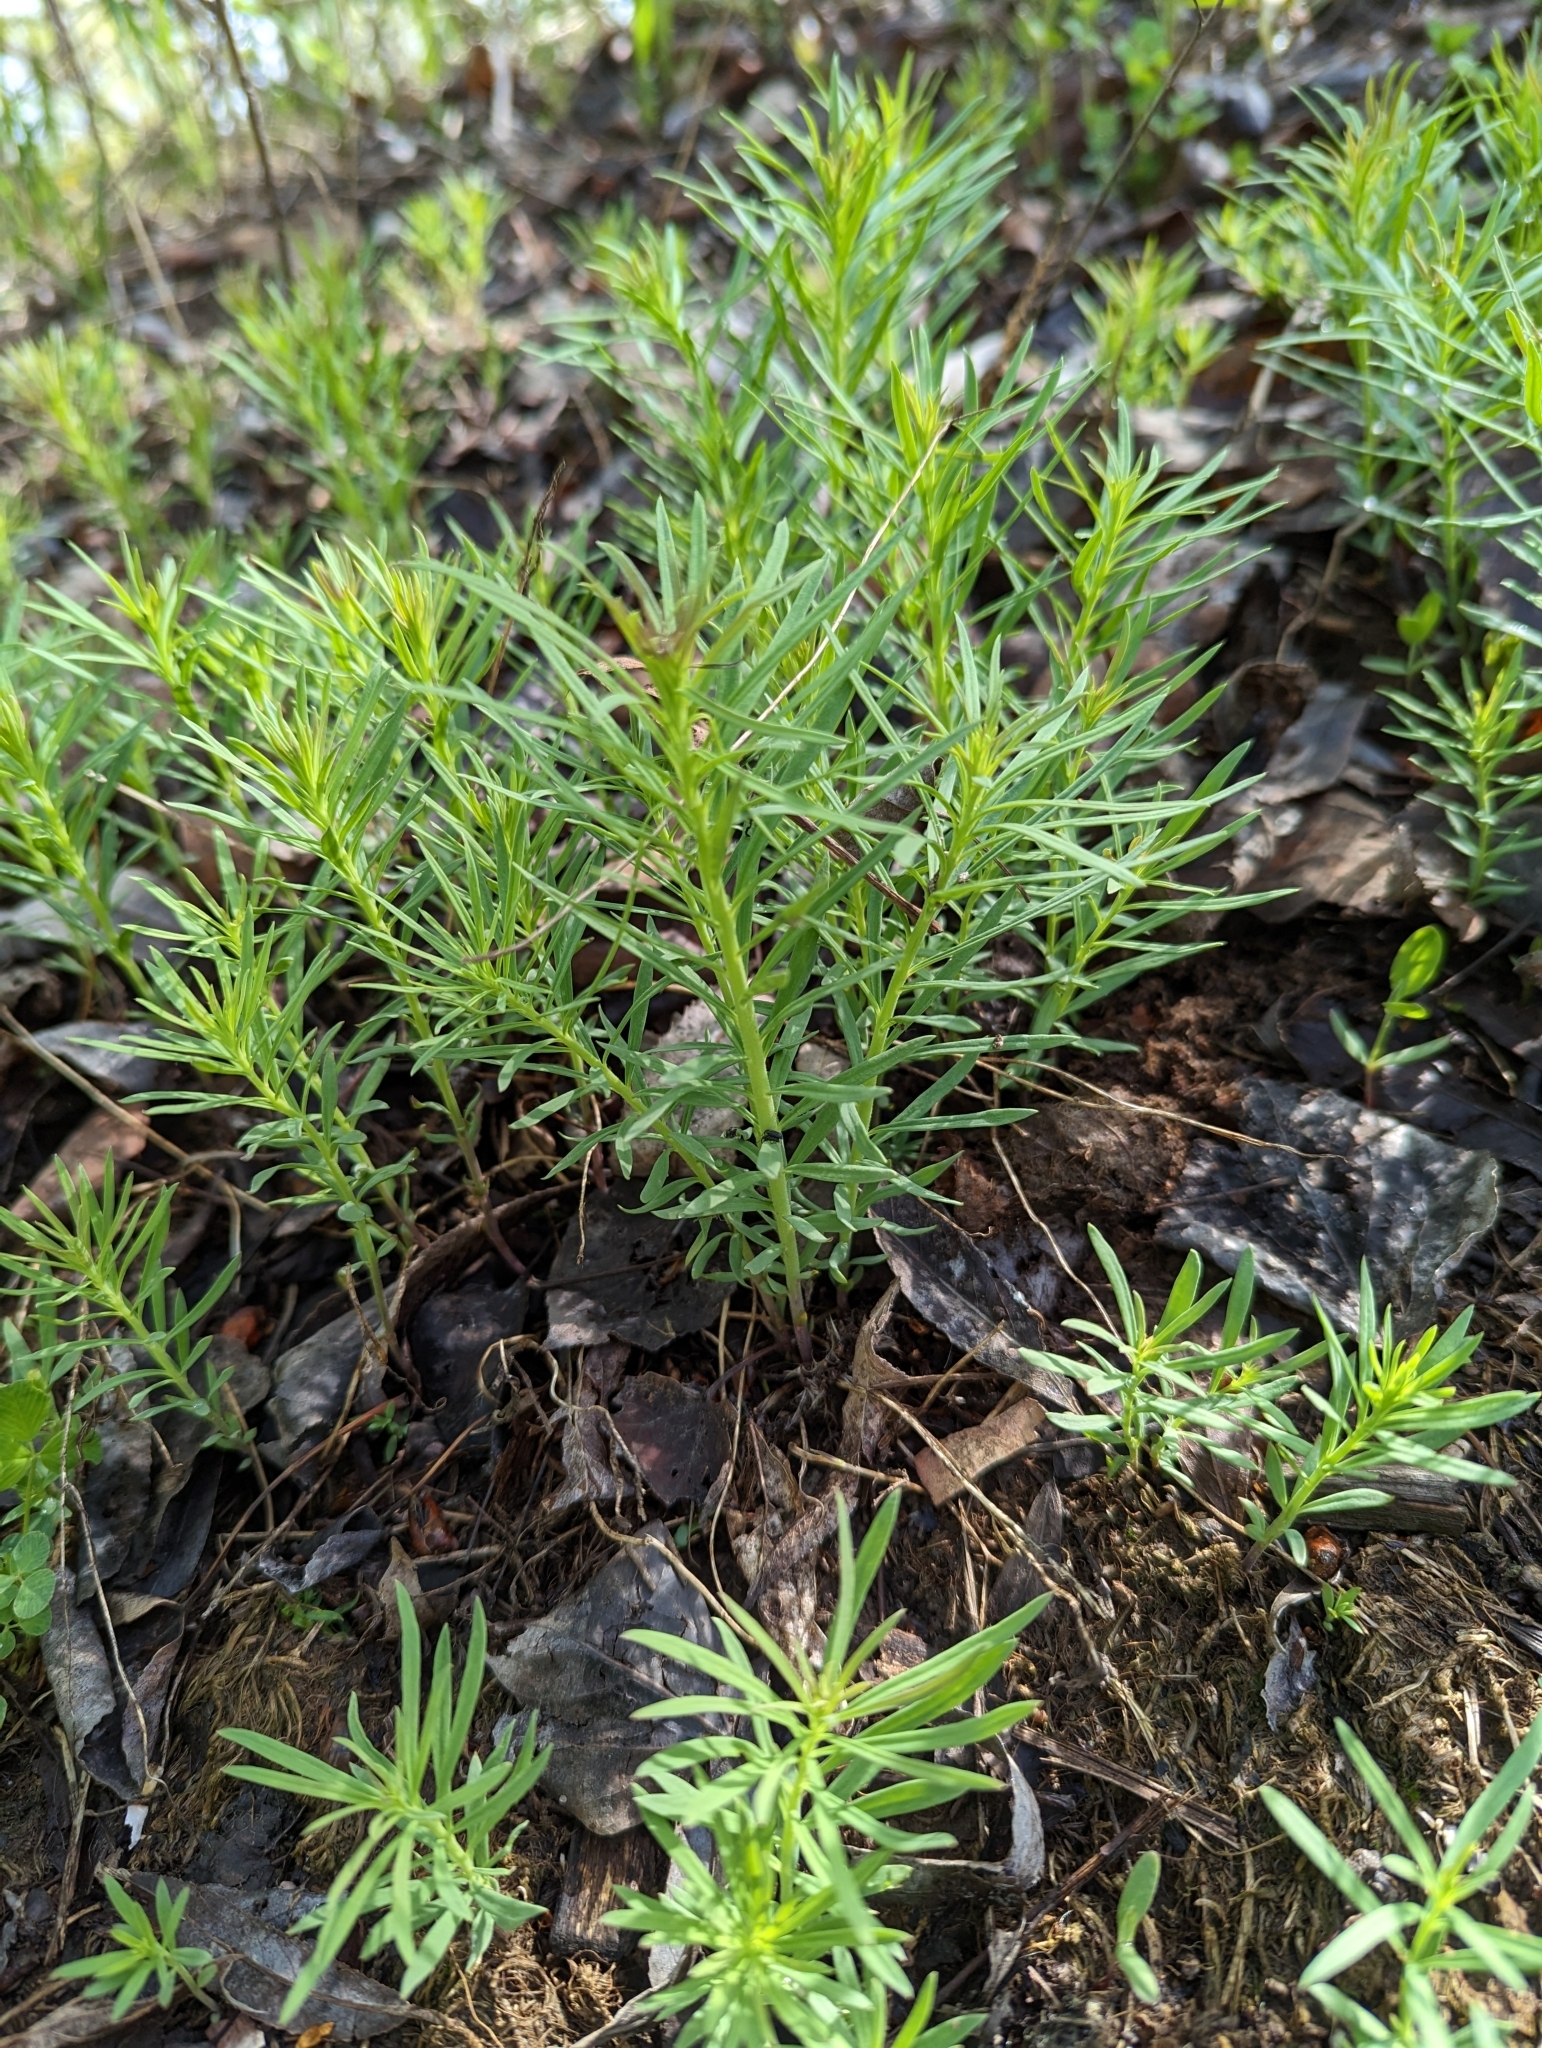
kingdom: Plantae
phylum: Tracheophyta
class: Magnoliopsida
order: Lamiales
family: Plantaginaceae
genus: Linaria
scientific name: Linaria vulgaris
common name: Butter and eggs
